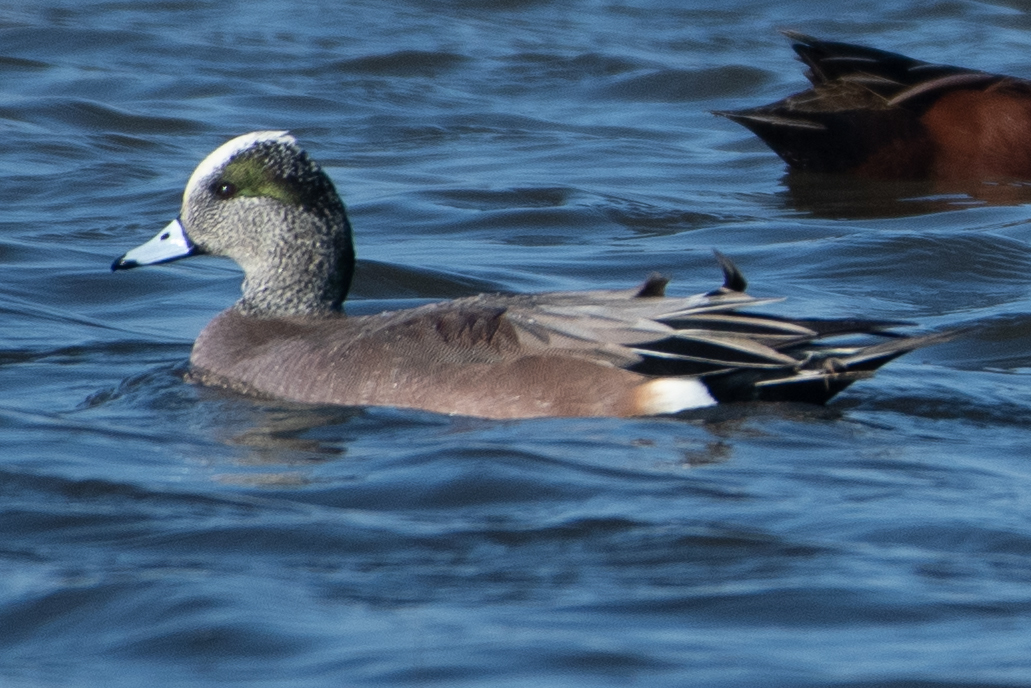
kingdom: Animalia
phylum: Chordata
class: Aves
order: Anseriformes
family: Anatidae
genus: Mareca
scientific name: Mareca americana
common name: American wigeon
